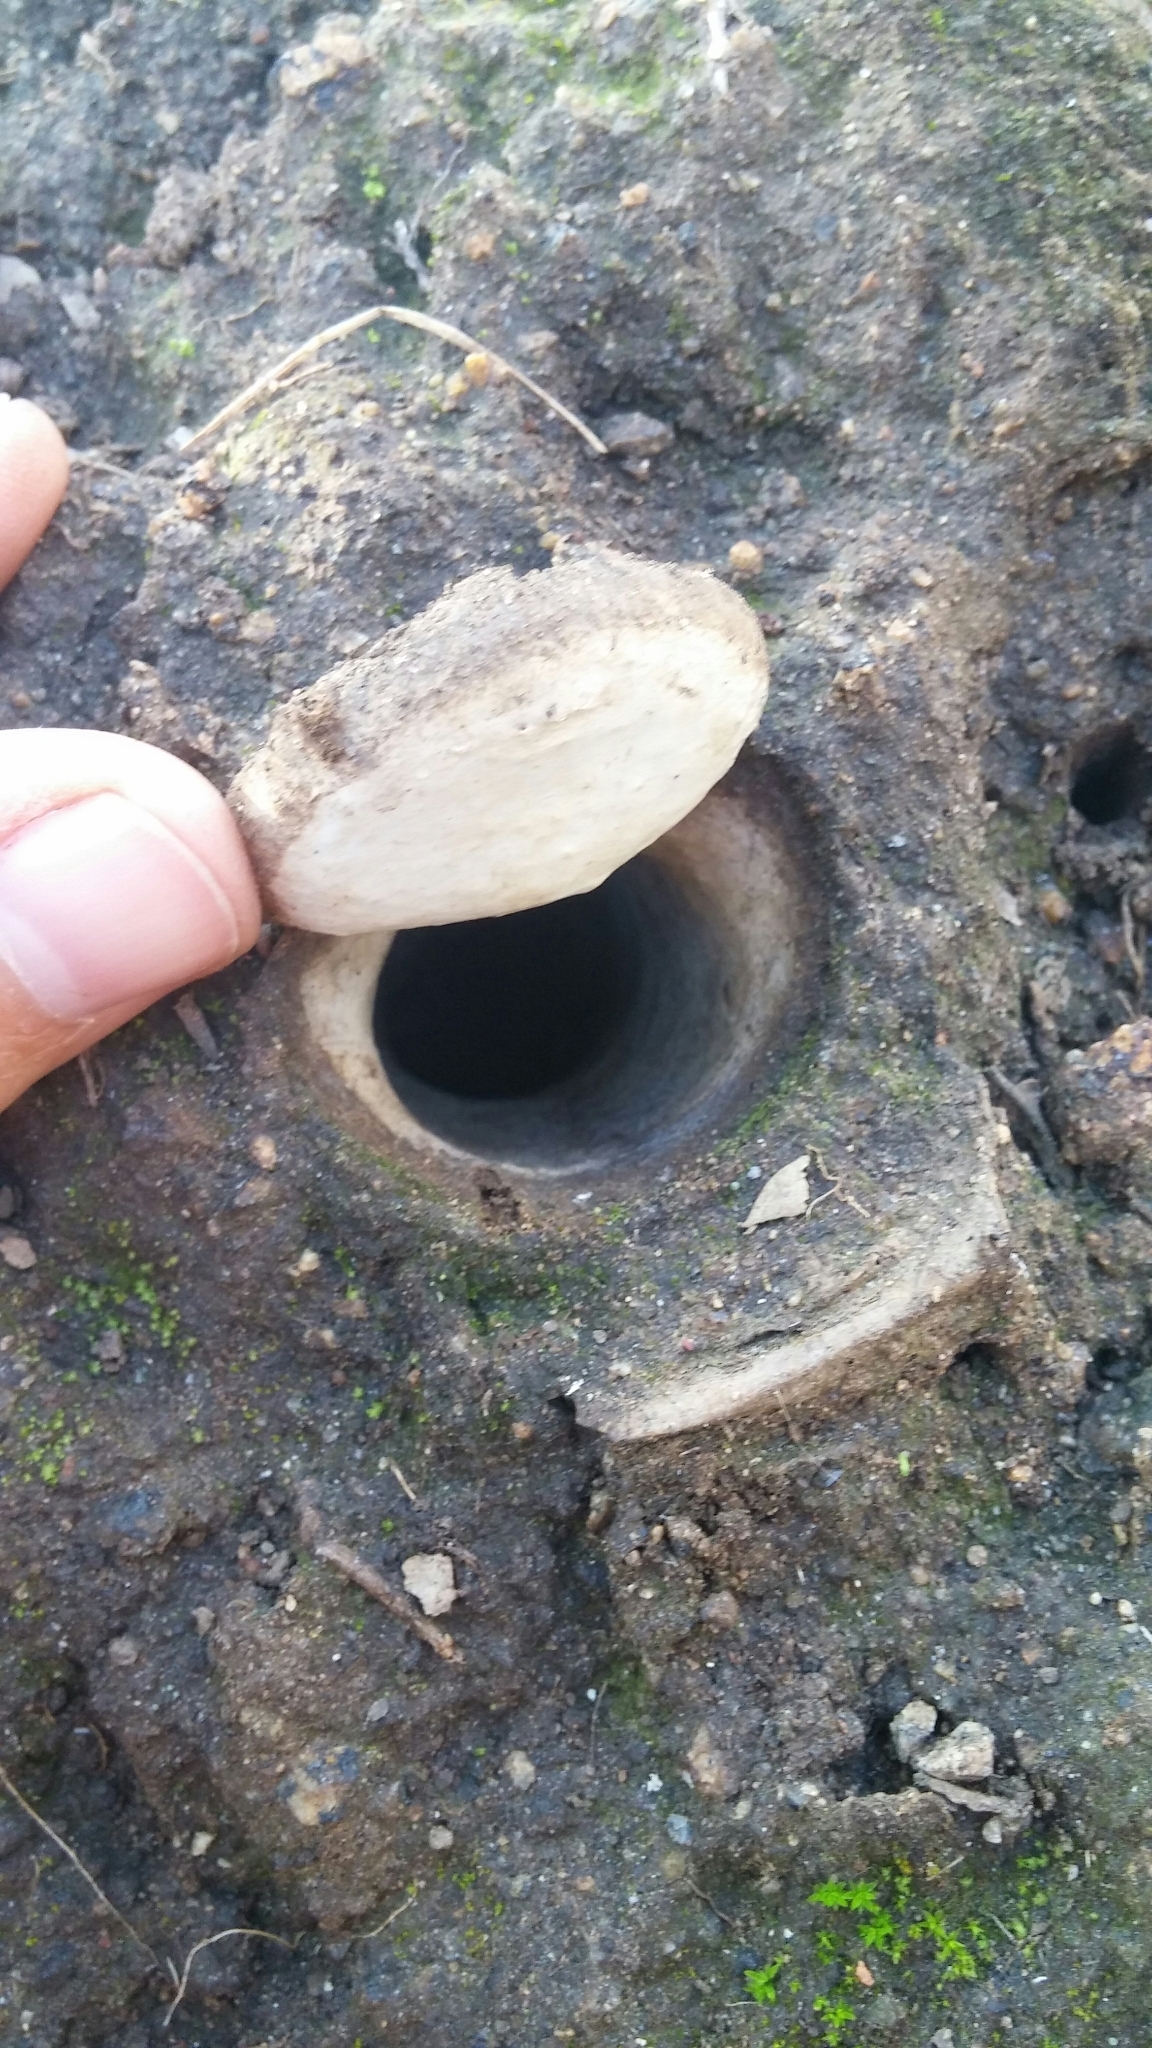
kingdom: Animalia
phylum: Arthropoda
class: Arachnida
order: Araneae
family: Halonoproctidae
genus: Bothriocyrtum
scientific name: Bothriocyrtum californicum
